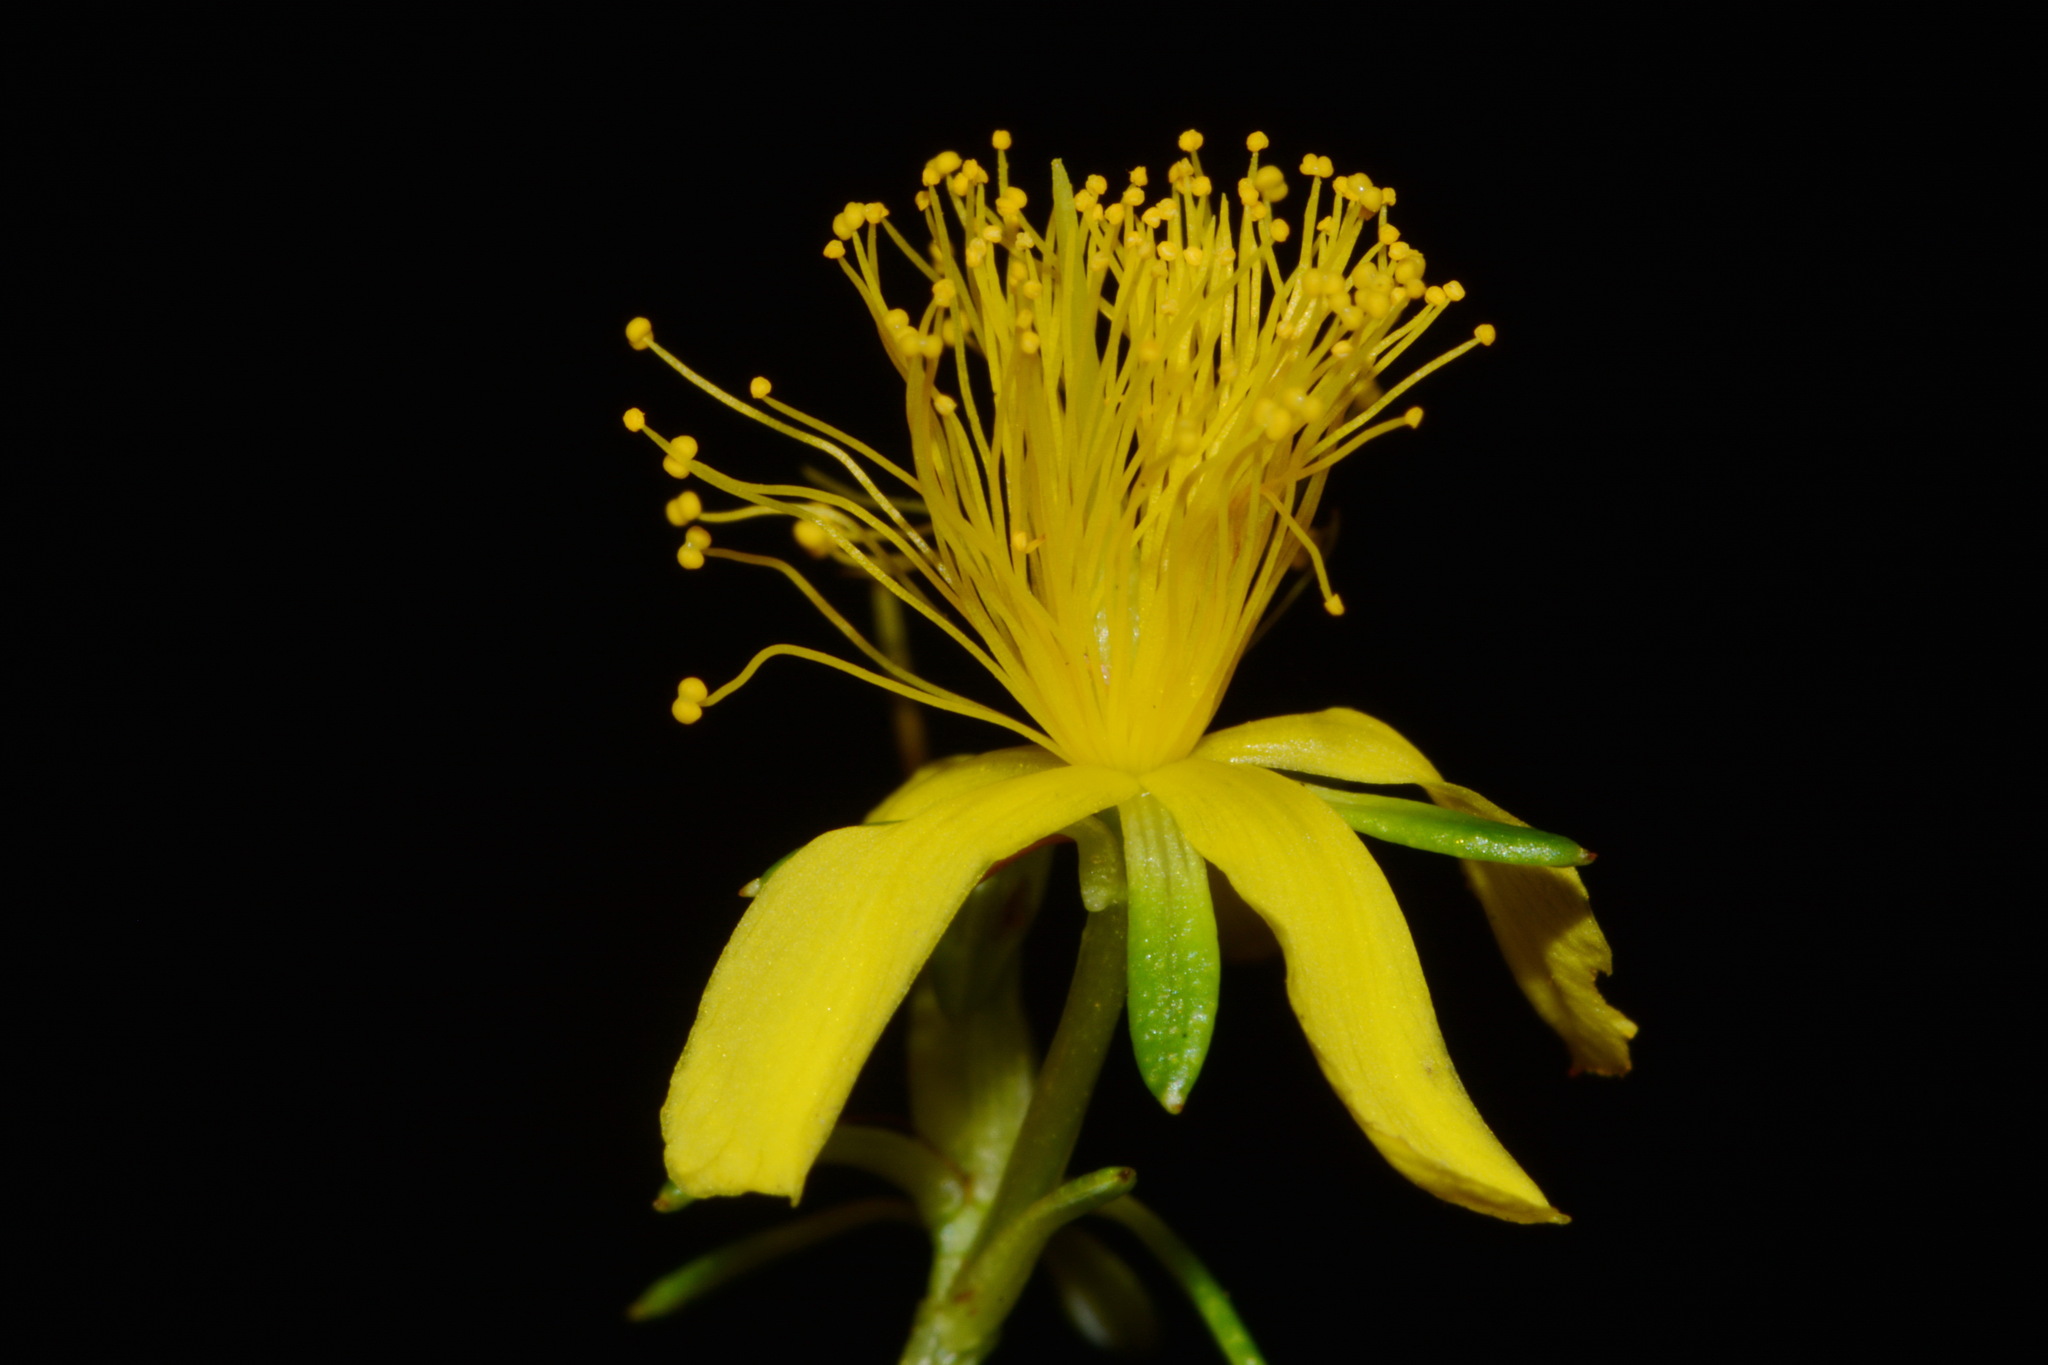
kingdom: Plantae
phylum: Tracheophyta
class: Magnoliopsida
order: Malpighiales
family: Hypericaceae
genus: Hypericum
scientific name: Hypericum densiflorum
